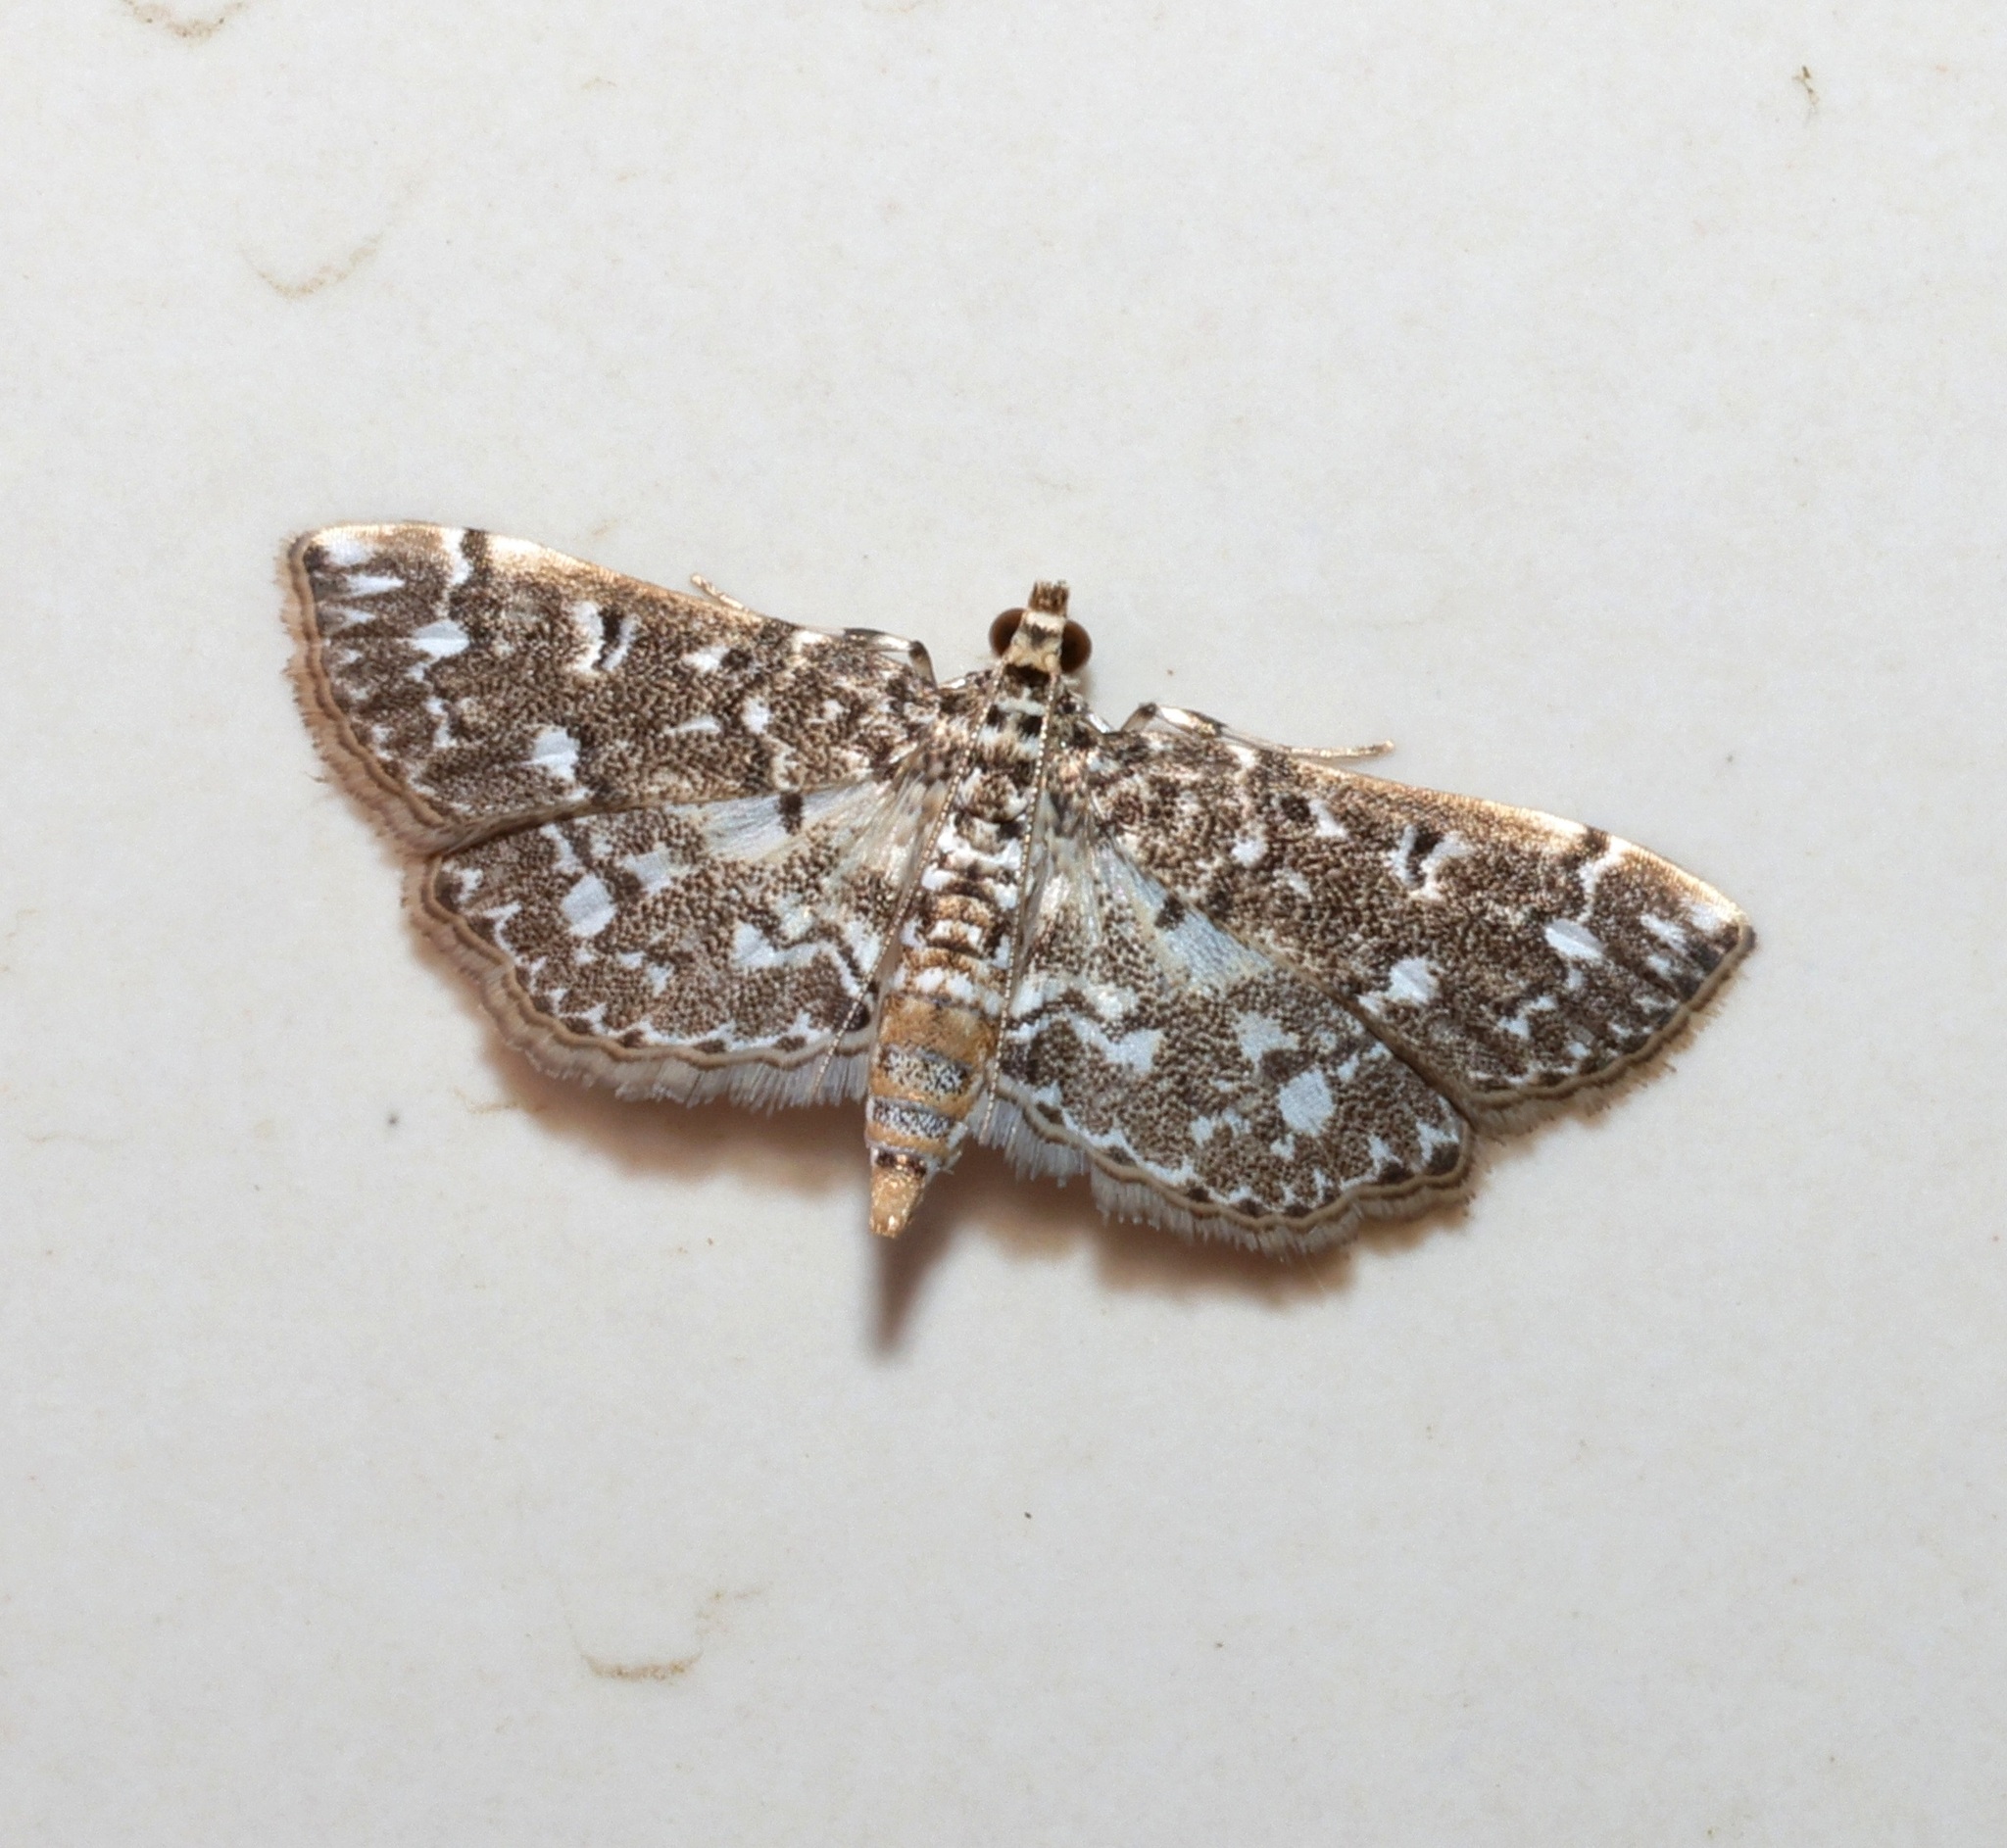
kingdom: Animalia
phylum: Arthropoda
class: Insecta
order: Lepidoptera
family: Crambidae
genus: Eurrhyparodes
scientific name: Eurrhyparodes nymphulalis
